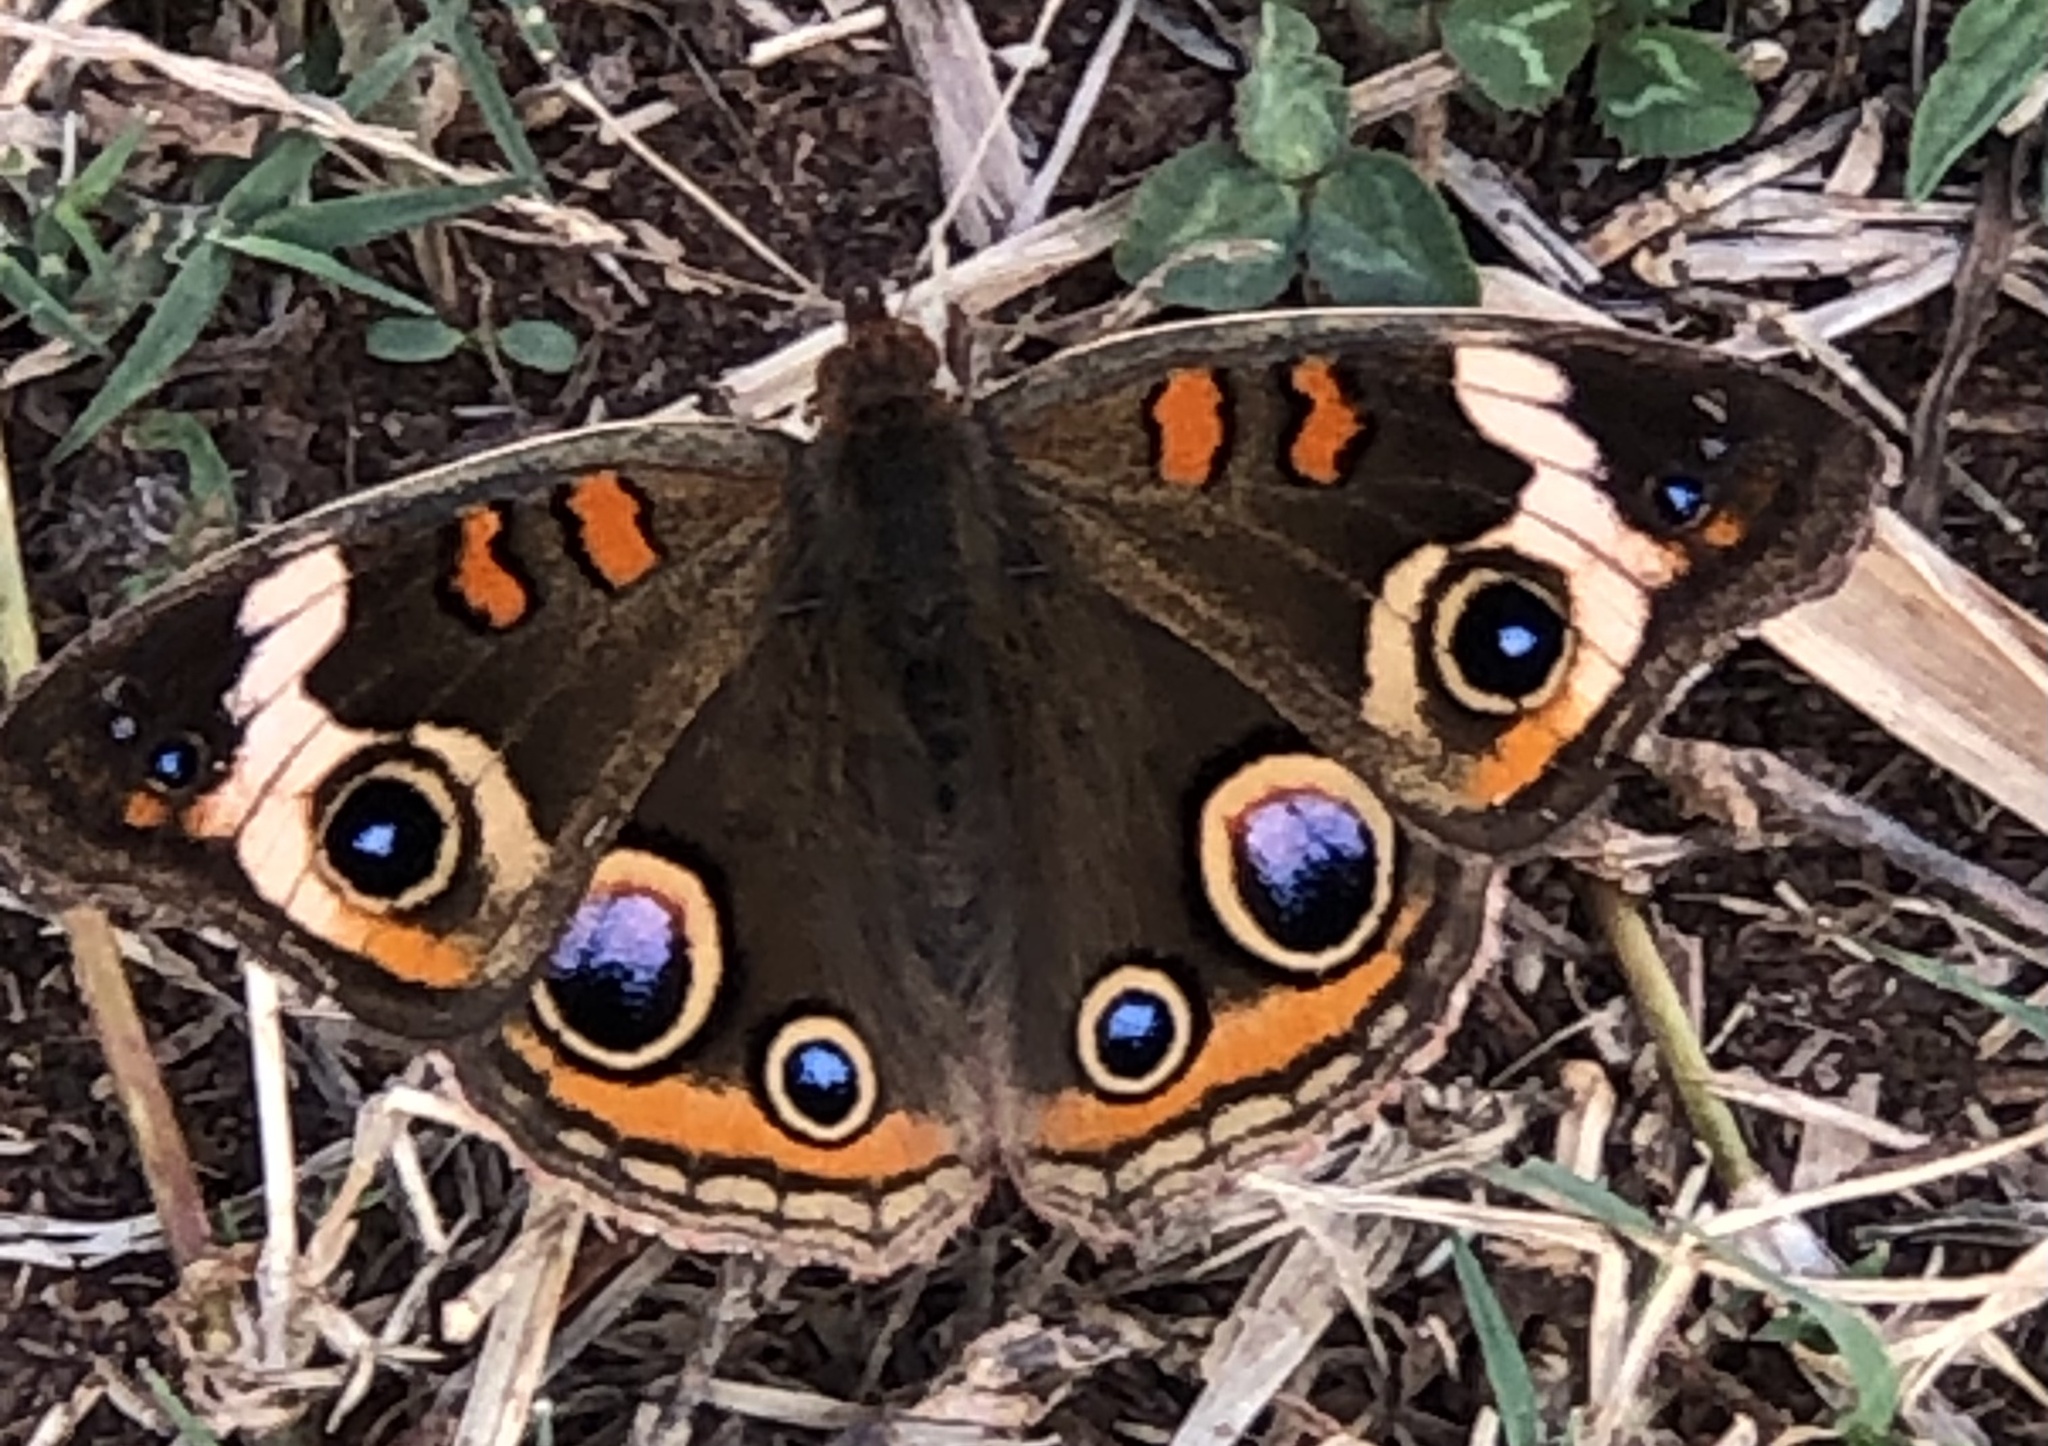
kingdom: Animalia
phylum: Arthropoda
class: Insecta
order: Lepidoptera
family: Nymphalidae
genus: Junonia
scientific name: Junonia coenia
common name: Common buckeye
